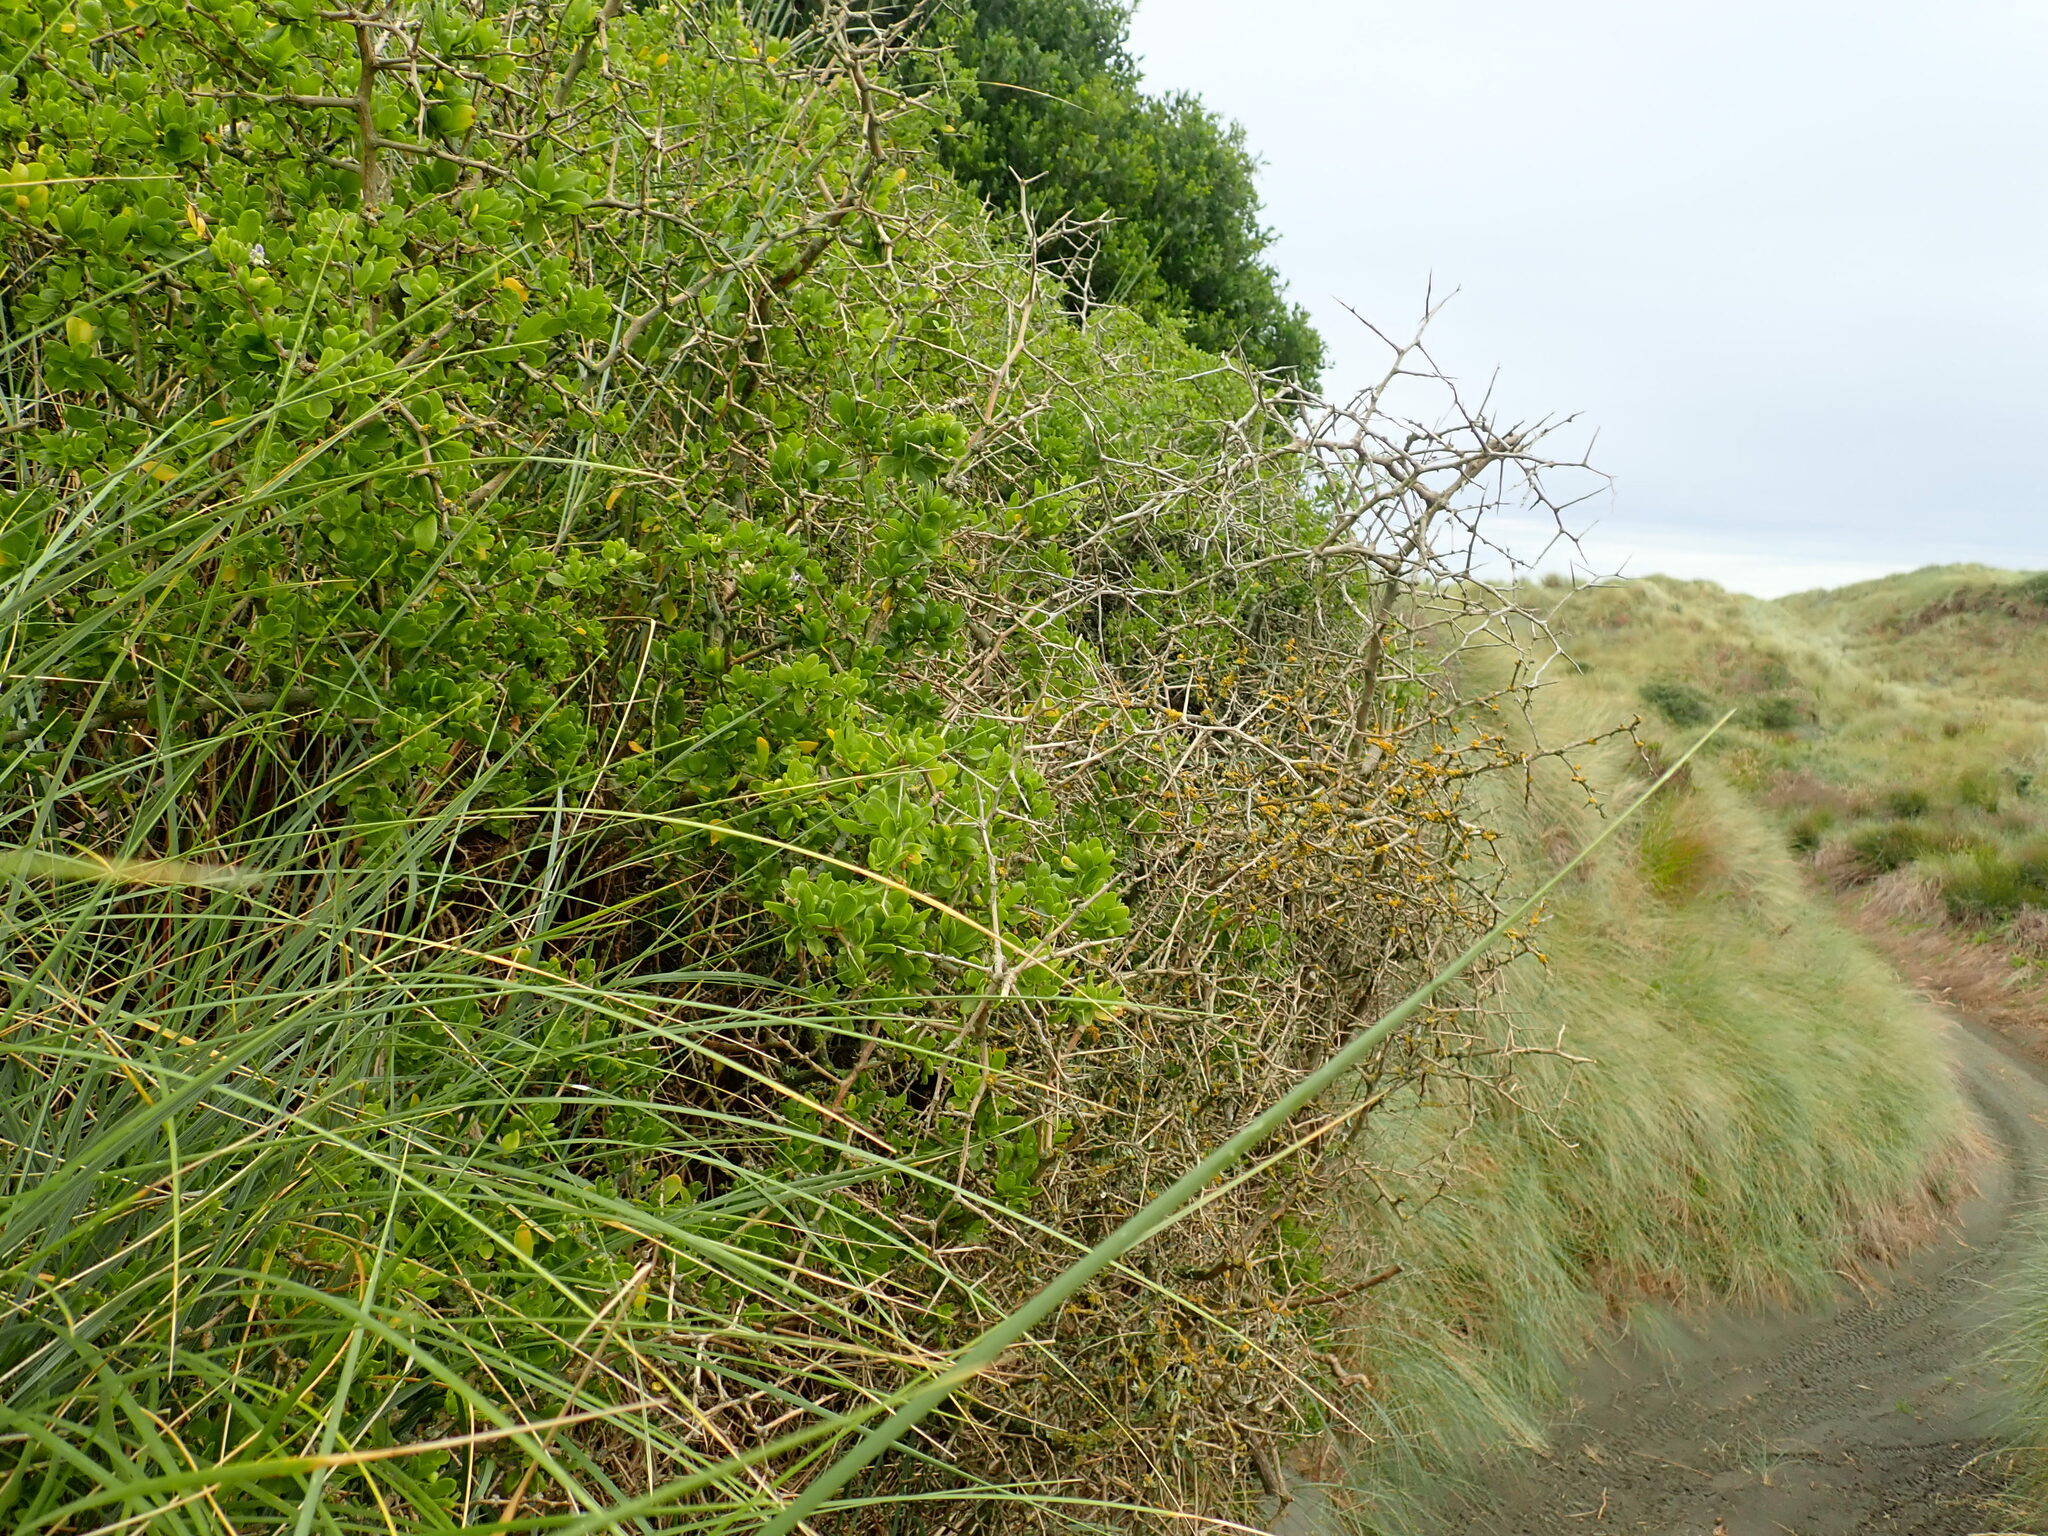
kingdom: Plantae
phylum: Tracheophyta
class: Magnoliopsida
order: Solanales
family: Solanaceae
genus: Lycium
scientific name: Lycium ferocissimum
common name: African boxthorn
